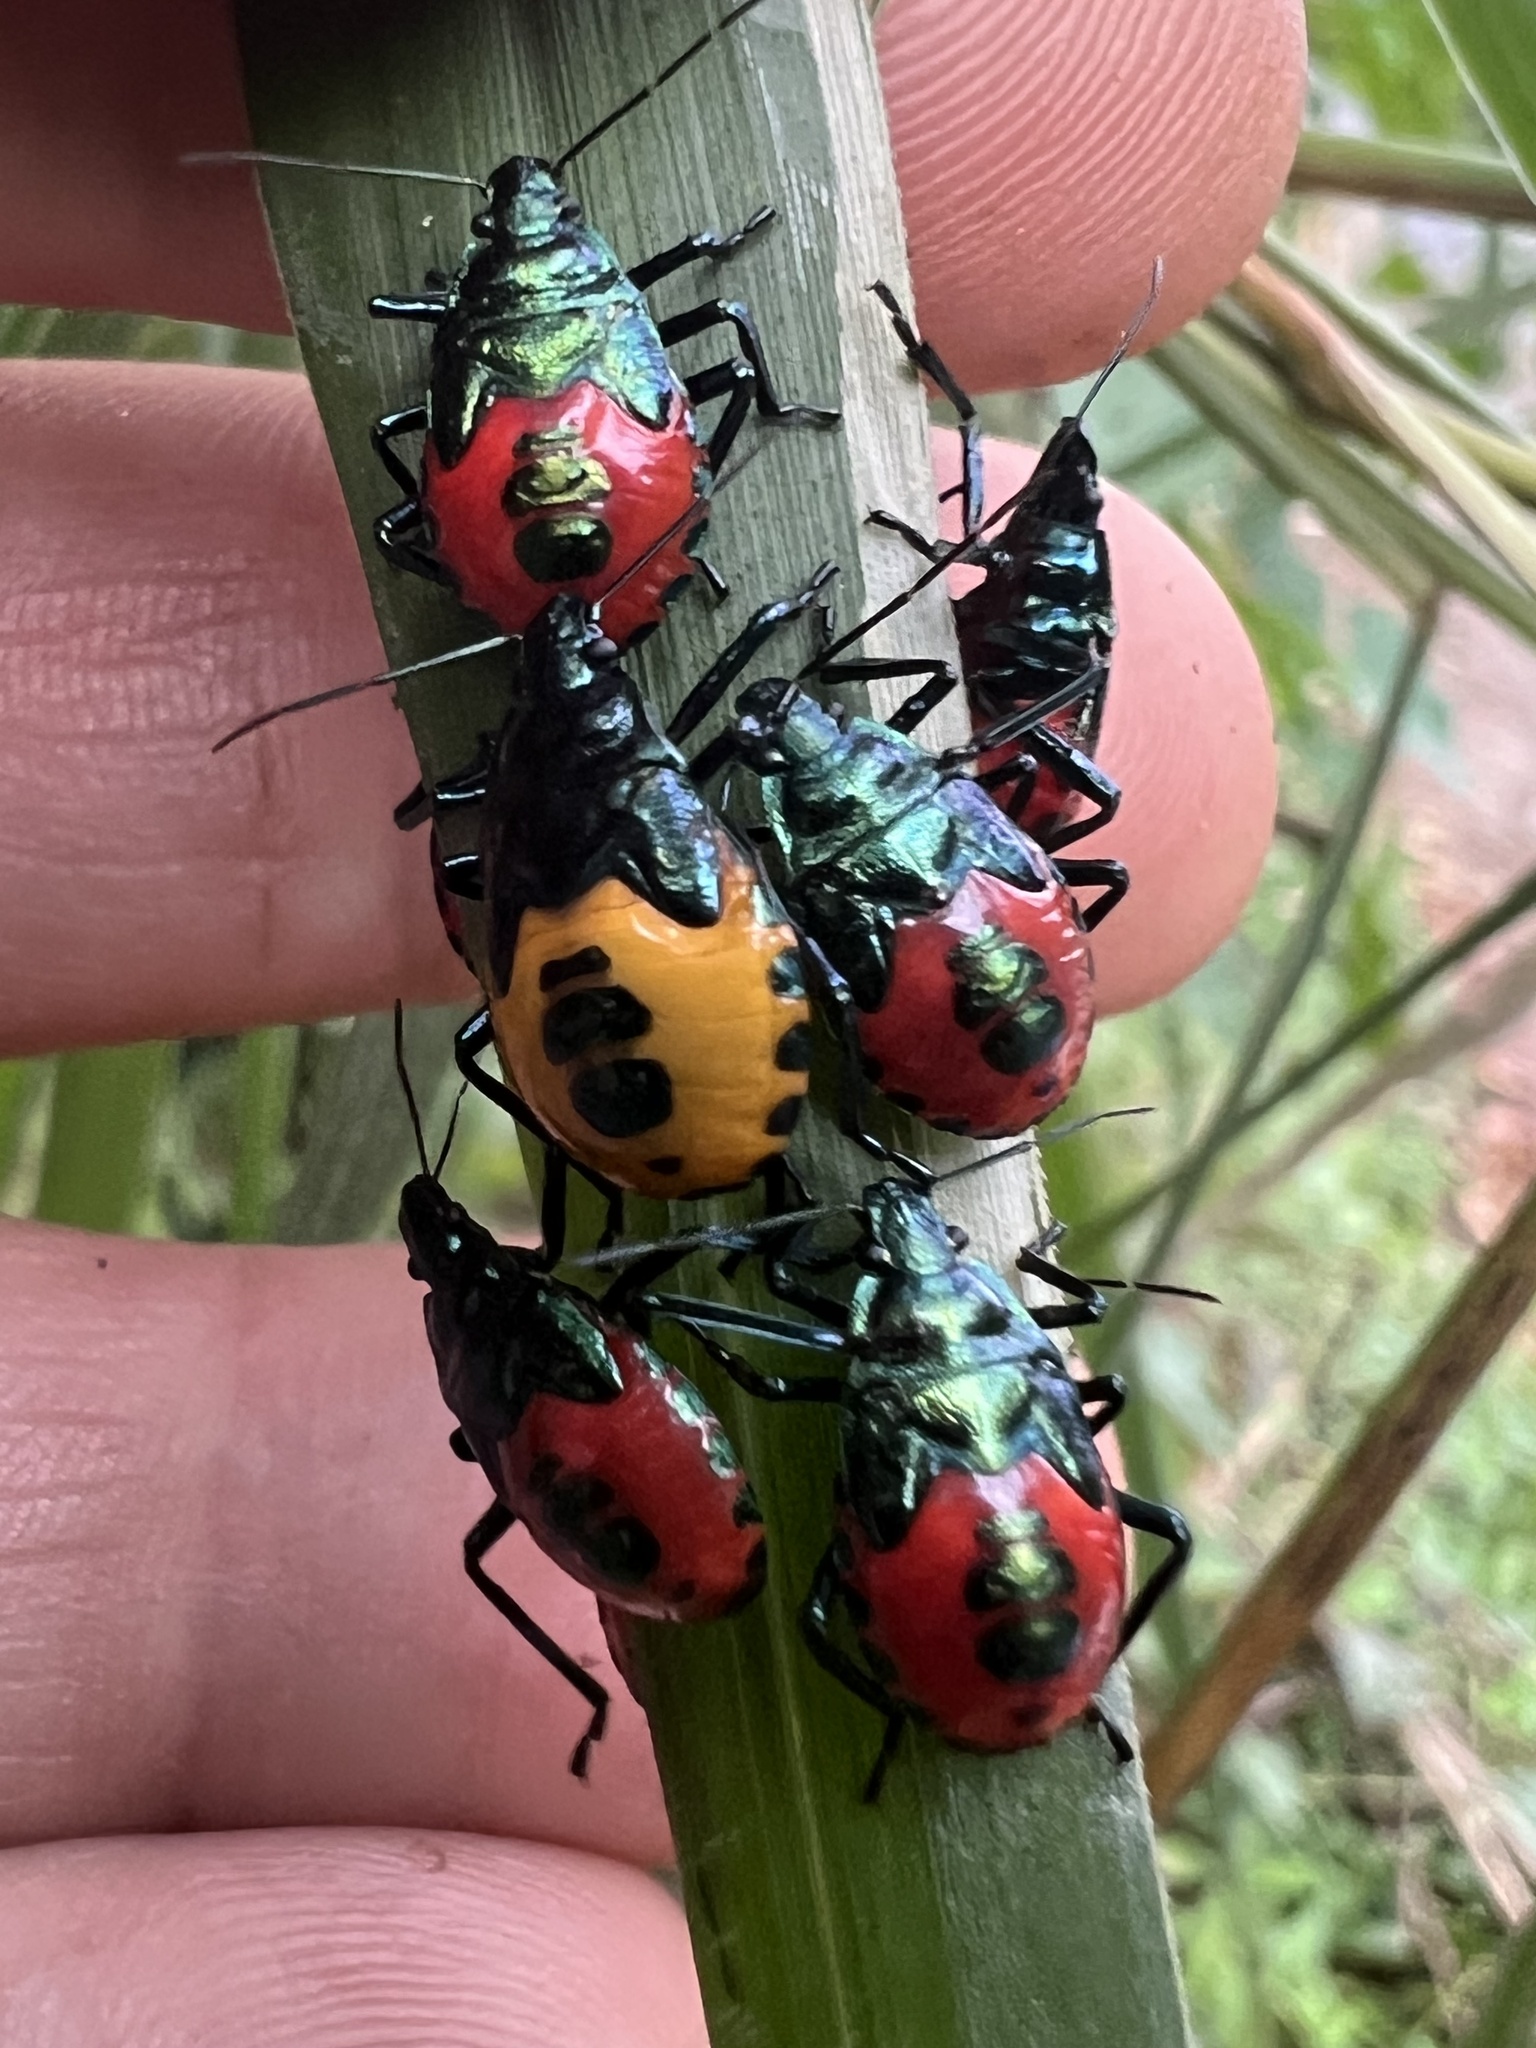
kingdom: Animalia
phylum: Arthropoda
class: Insecta
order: Hemiptera
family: Pentatomidae
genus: Euthyrhynchus
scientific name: Euthyrhynchus floridanus
